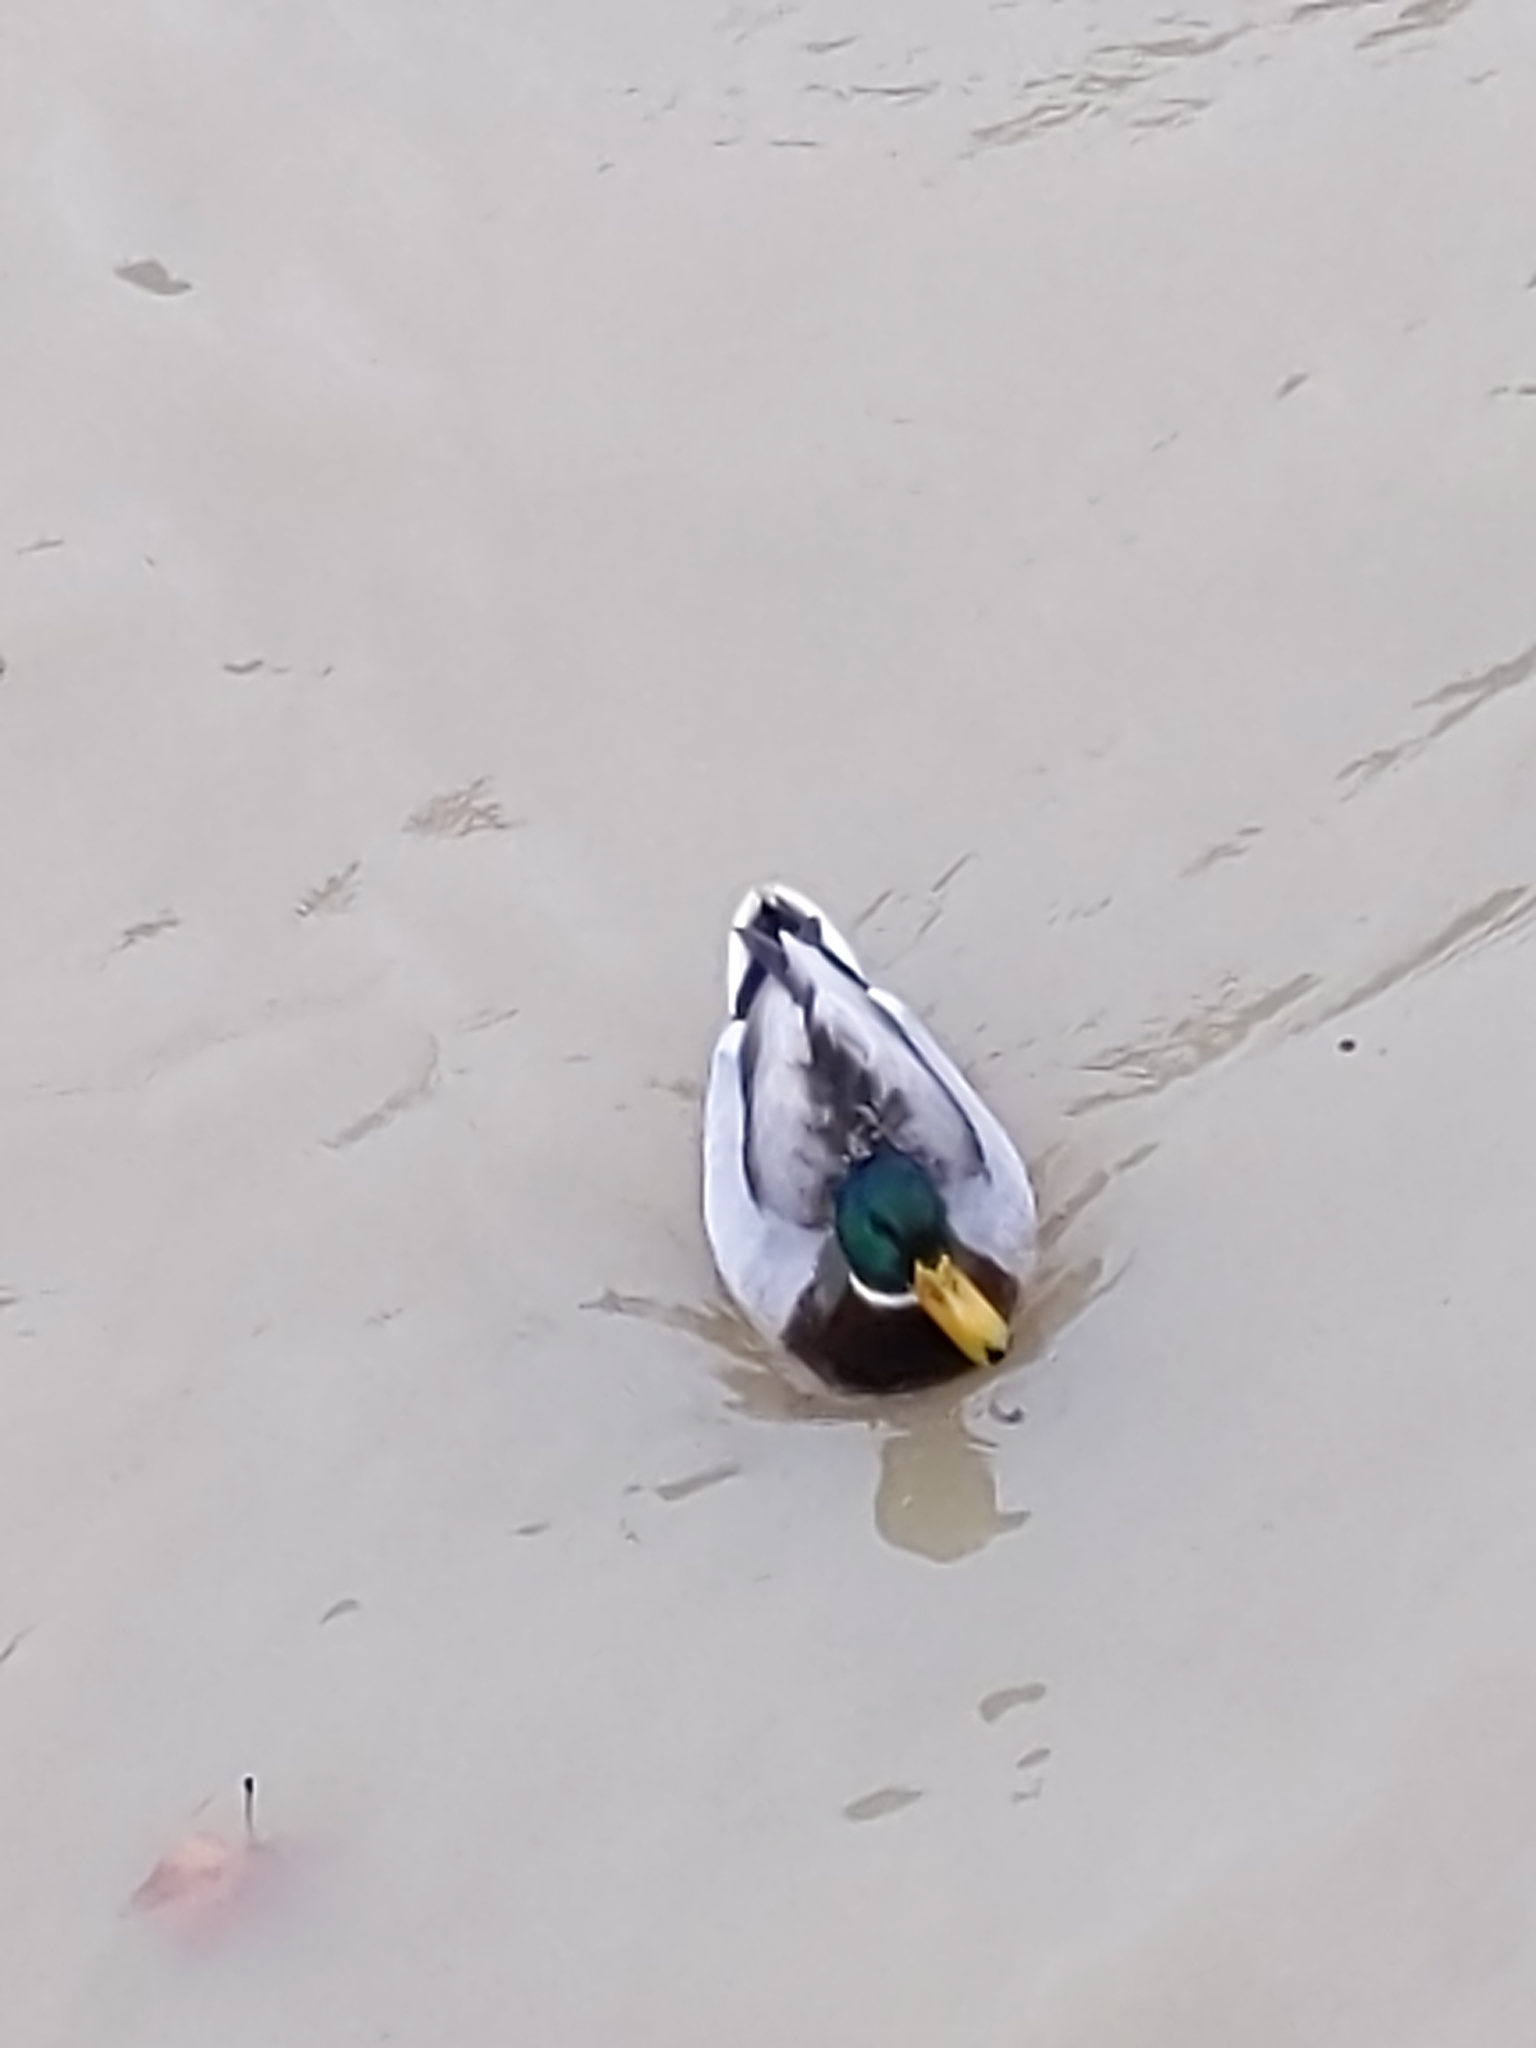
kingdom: Animalia
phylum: Chordata
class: Aves
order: Anseriformes
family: Anatidae
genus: Anas
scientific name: Anas platyrhynchos
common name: Mallard
